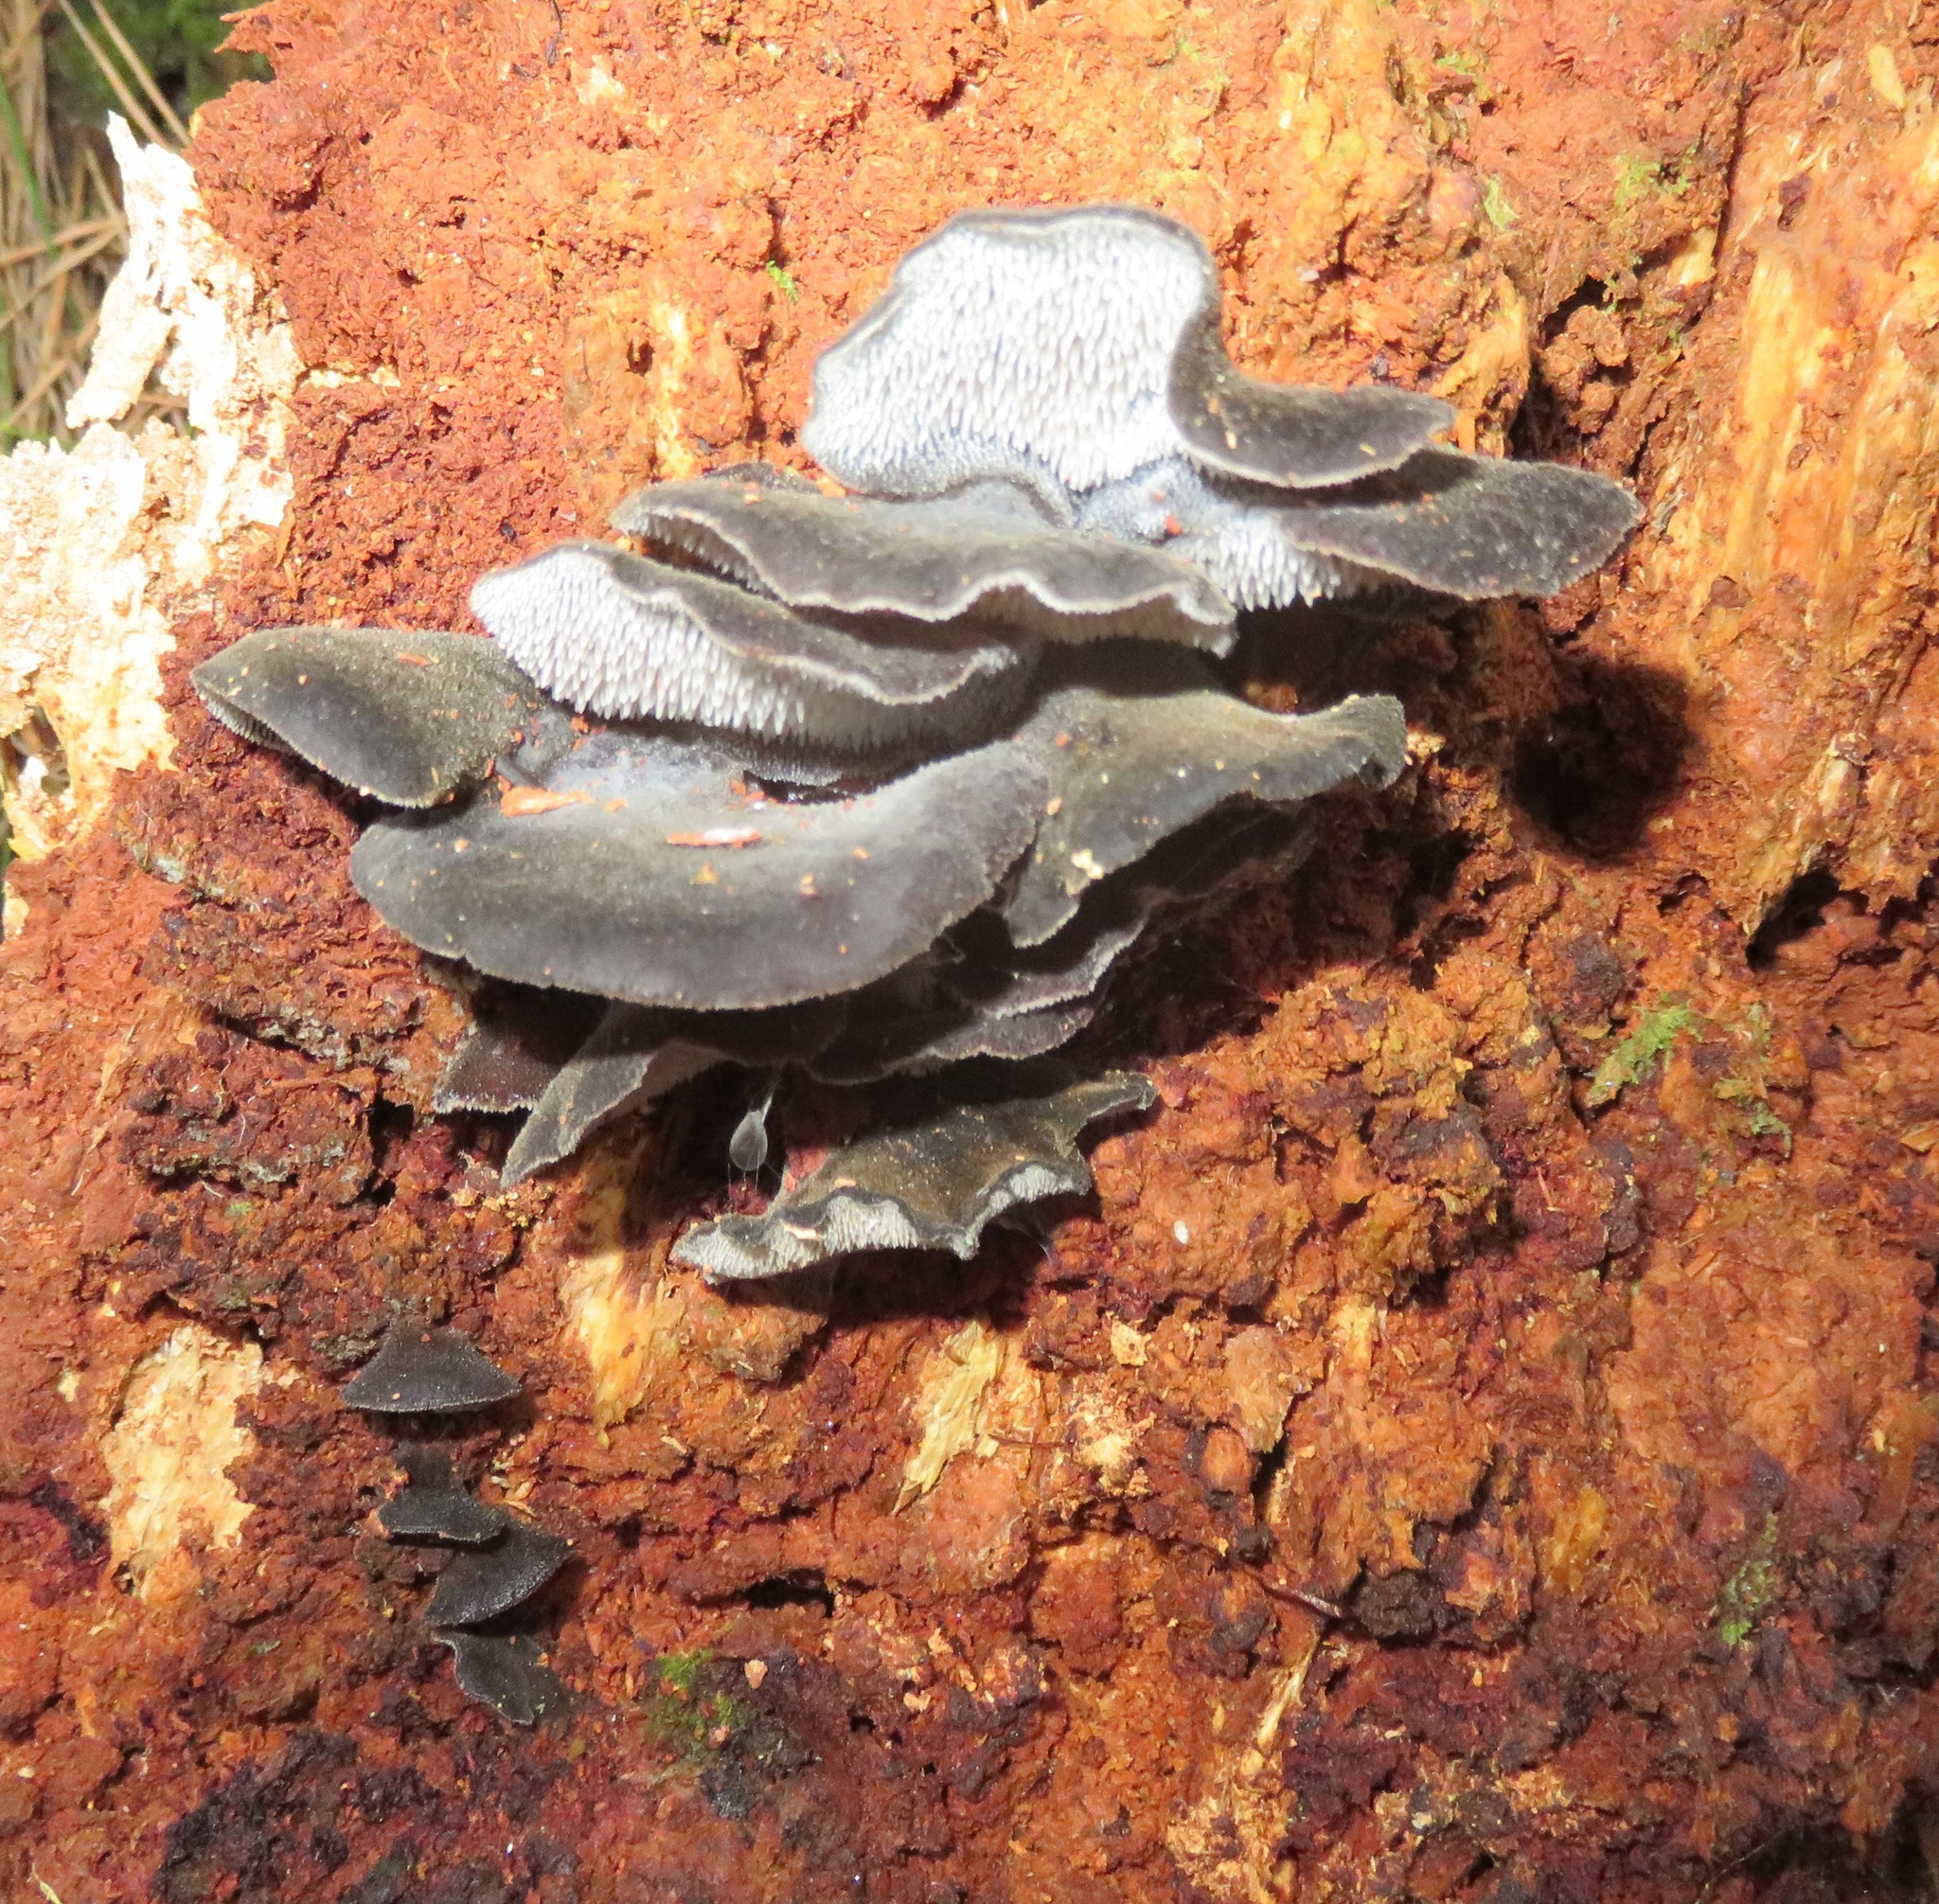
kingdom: Fungi
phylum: Basidiomycota
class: Agaricomycetes
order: Auriculariales
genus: Pseudohydnum
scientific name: Pseudohydnum orbiculare
